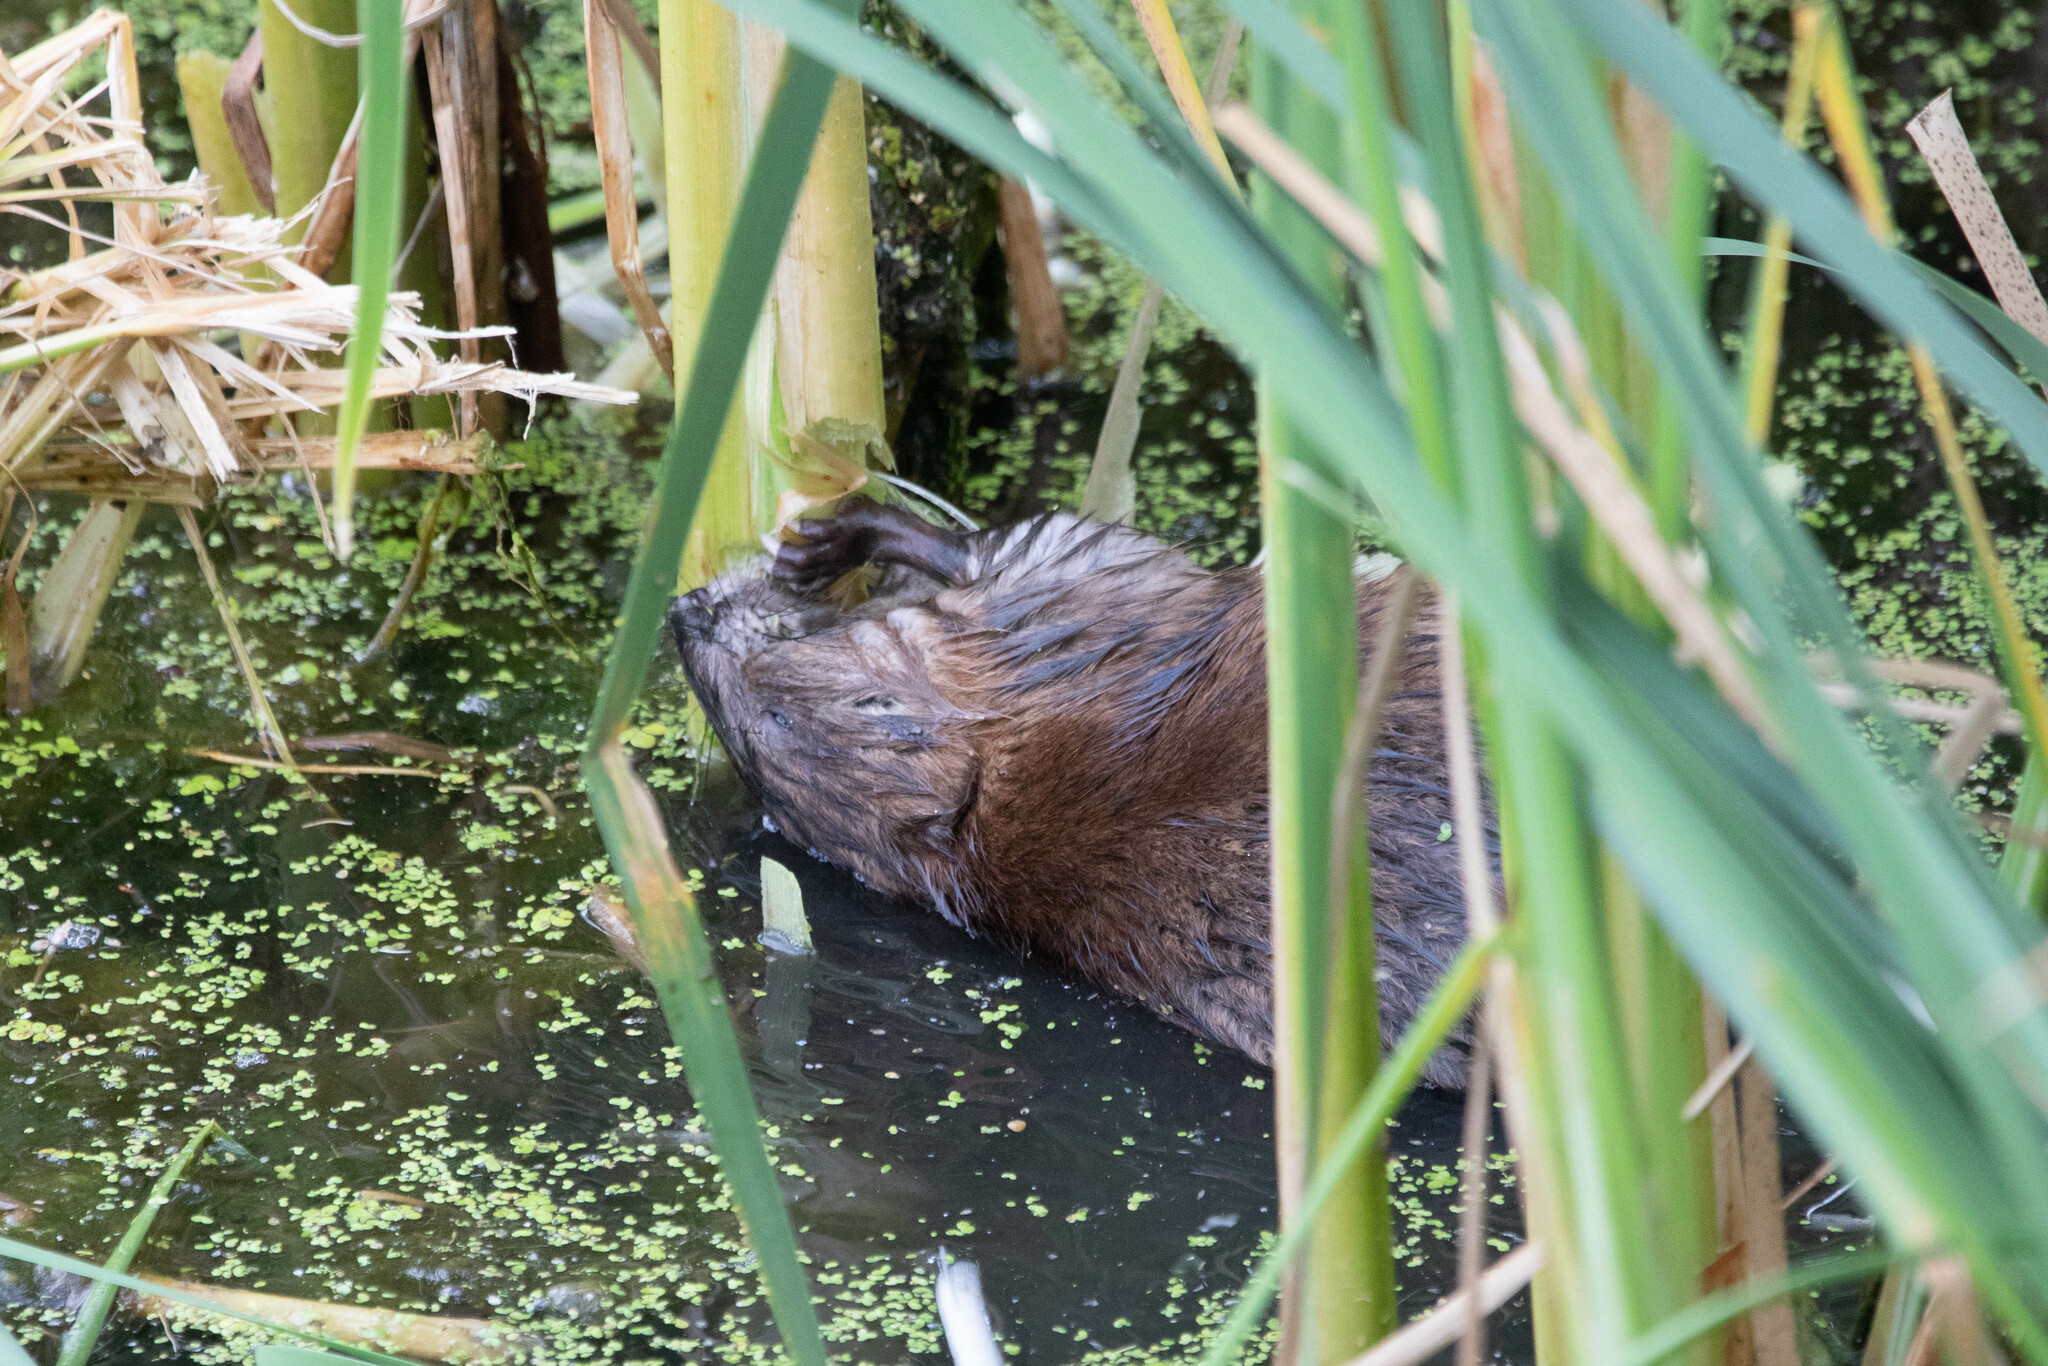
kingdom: Animalia
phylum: Chordata
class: Mammalia
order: Rodentia
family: Cricetidae
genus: Ondatra
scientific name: Ondatra zibethicus
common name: Muskrat
